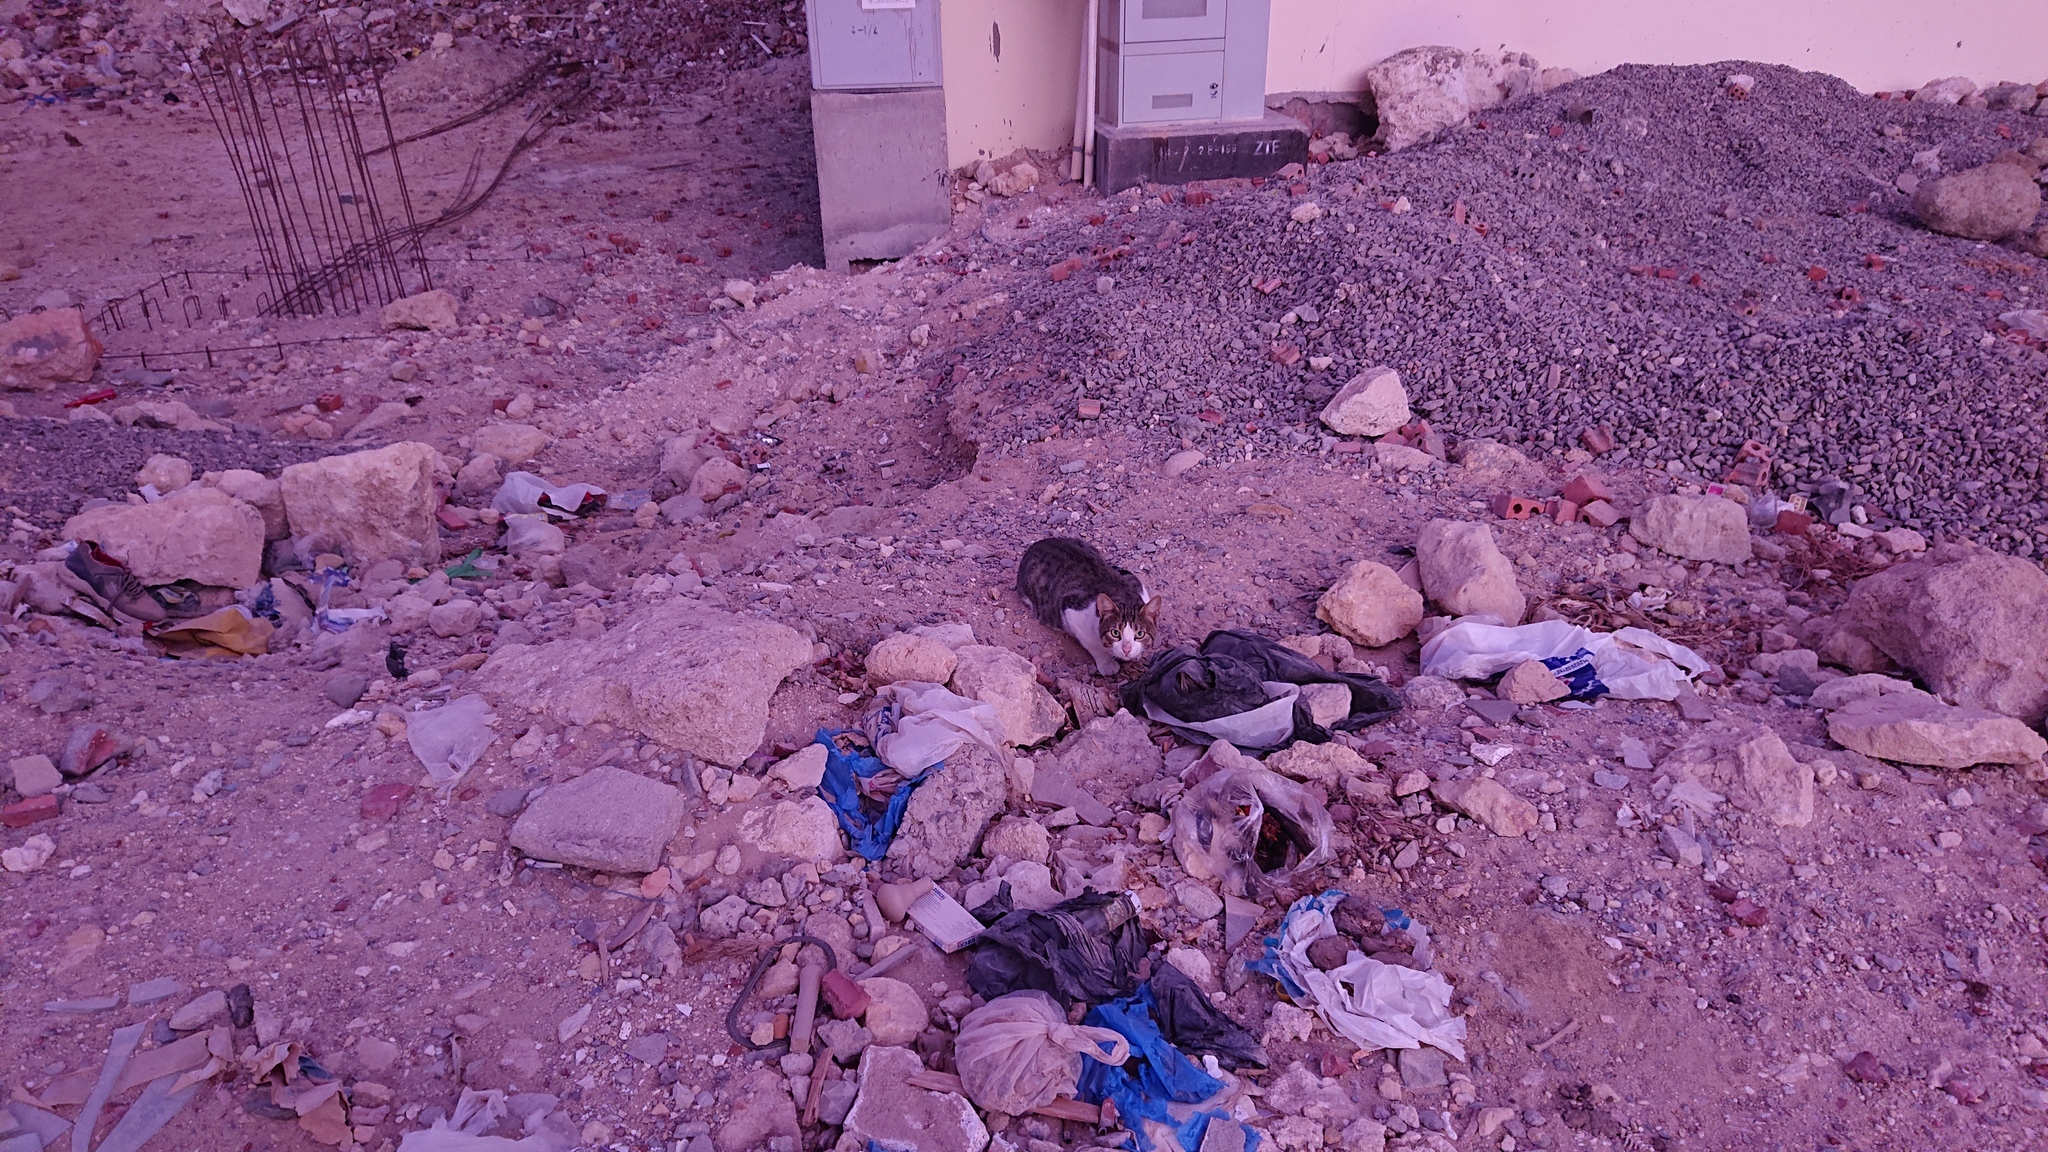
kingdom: Animalia
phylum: Chordata
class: Mammalia
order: Carnivora
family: Felidae
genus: Felis
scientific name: Felis catus
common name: Domestic cat
